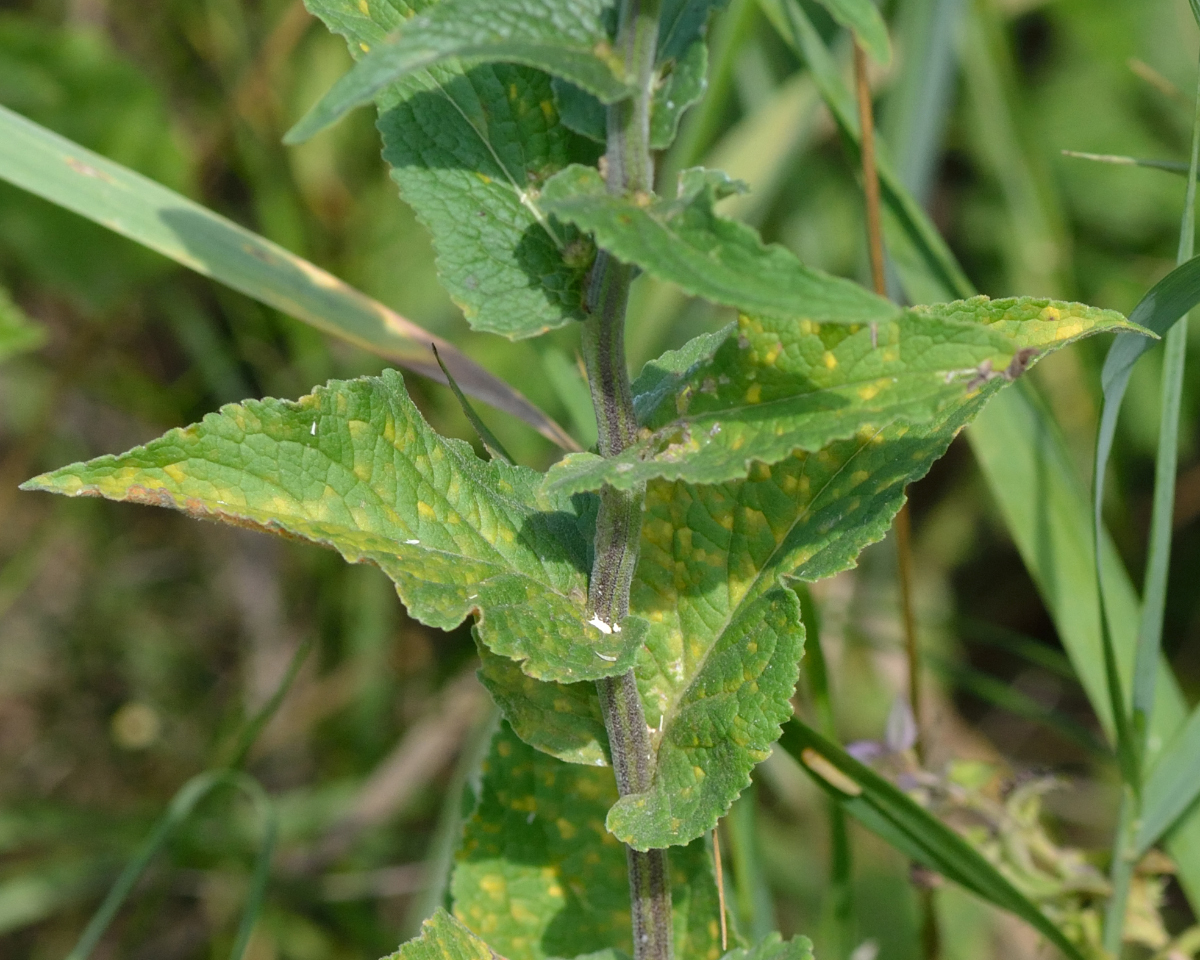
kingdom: Plantae
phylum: Tracheophyta
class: Magnoliopsida
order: Asterales
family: Campanulaceae
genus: Campanula
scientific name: Campanula bononiensis
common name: Pale bellflower
